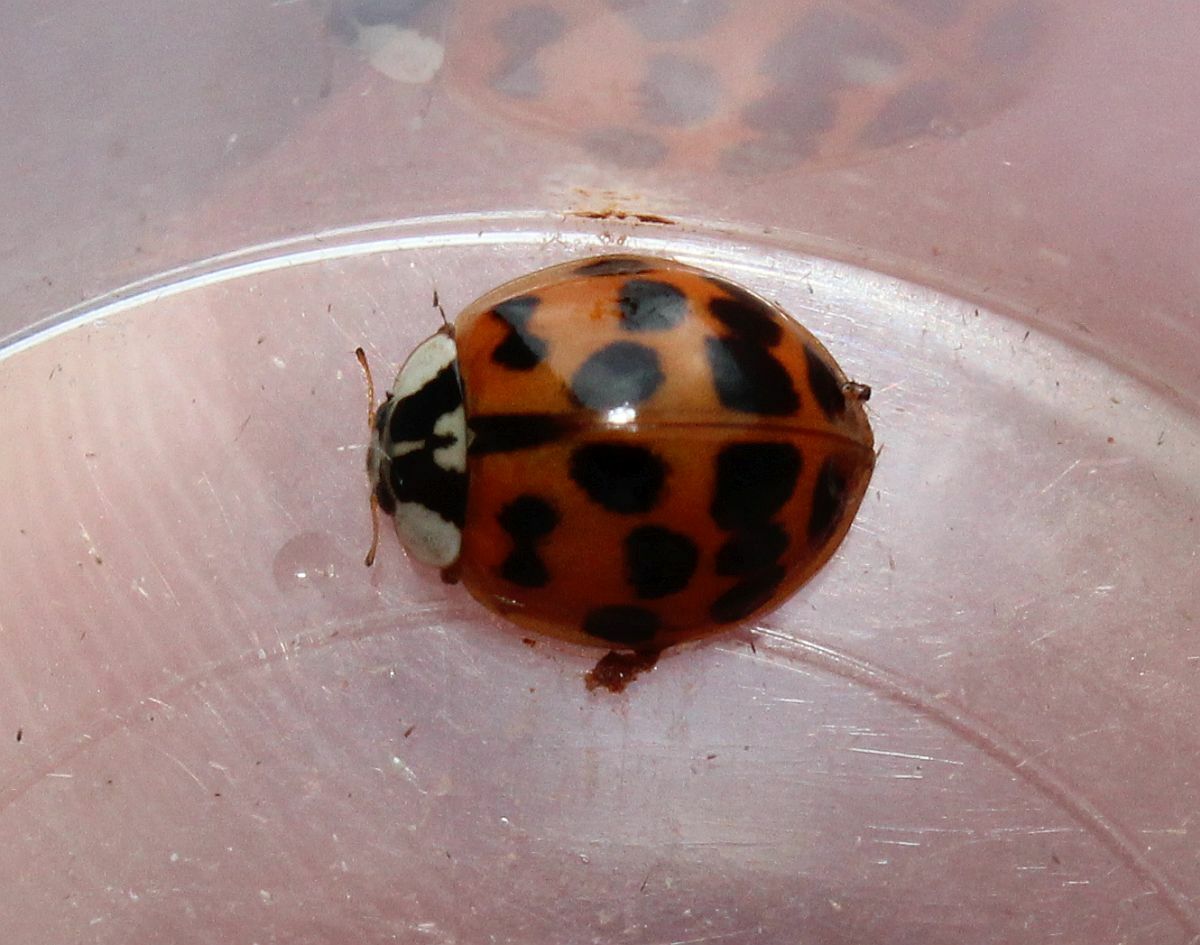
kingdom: Animalia
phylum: Arthropoda
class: Insecta
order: Coleoptera
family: Coccinellidae
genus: Harmonia
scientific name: Harmonia axyridis
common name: Harlequin ladybird
